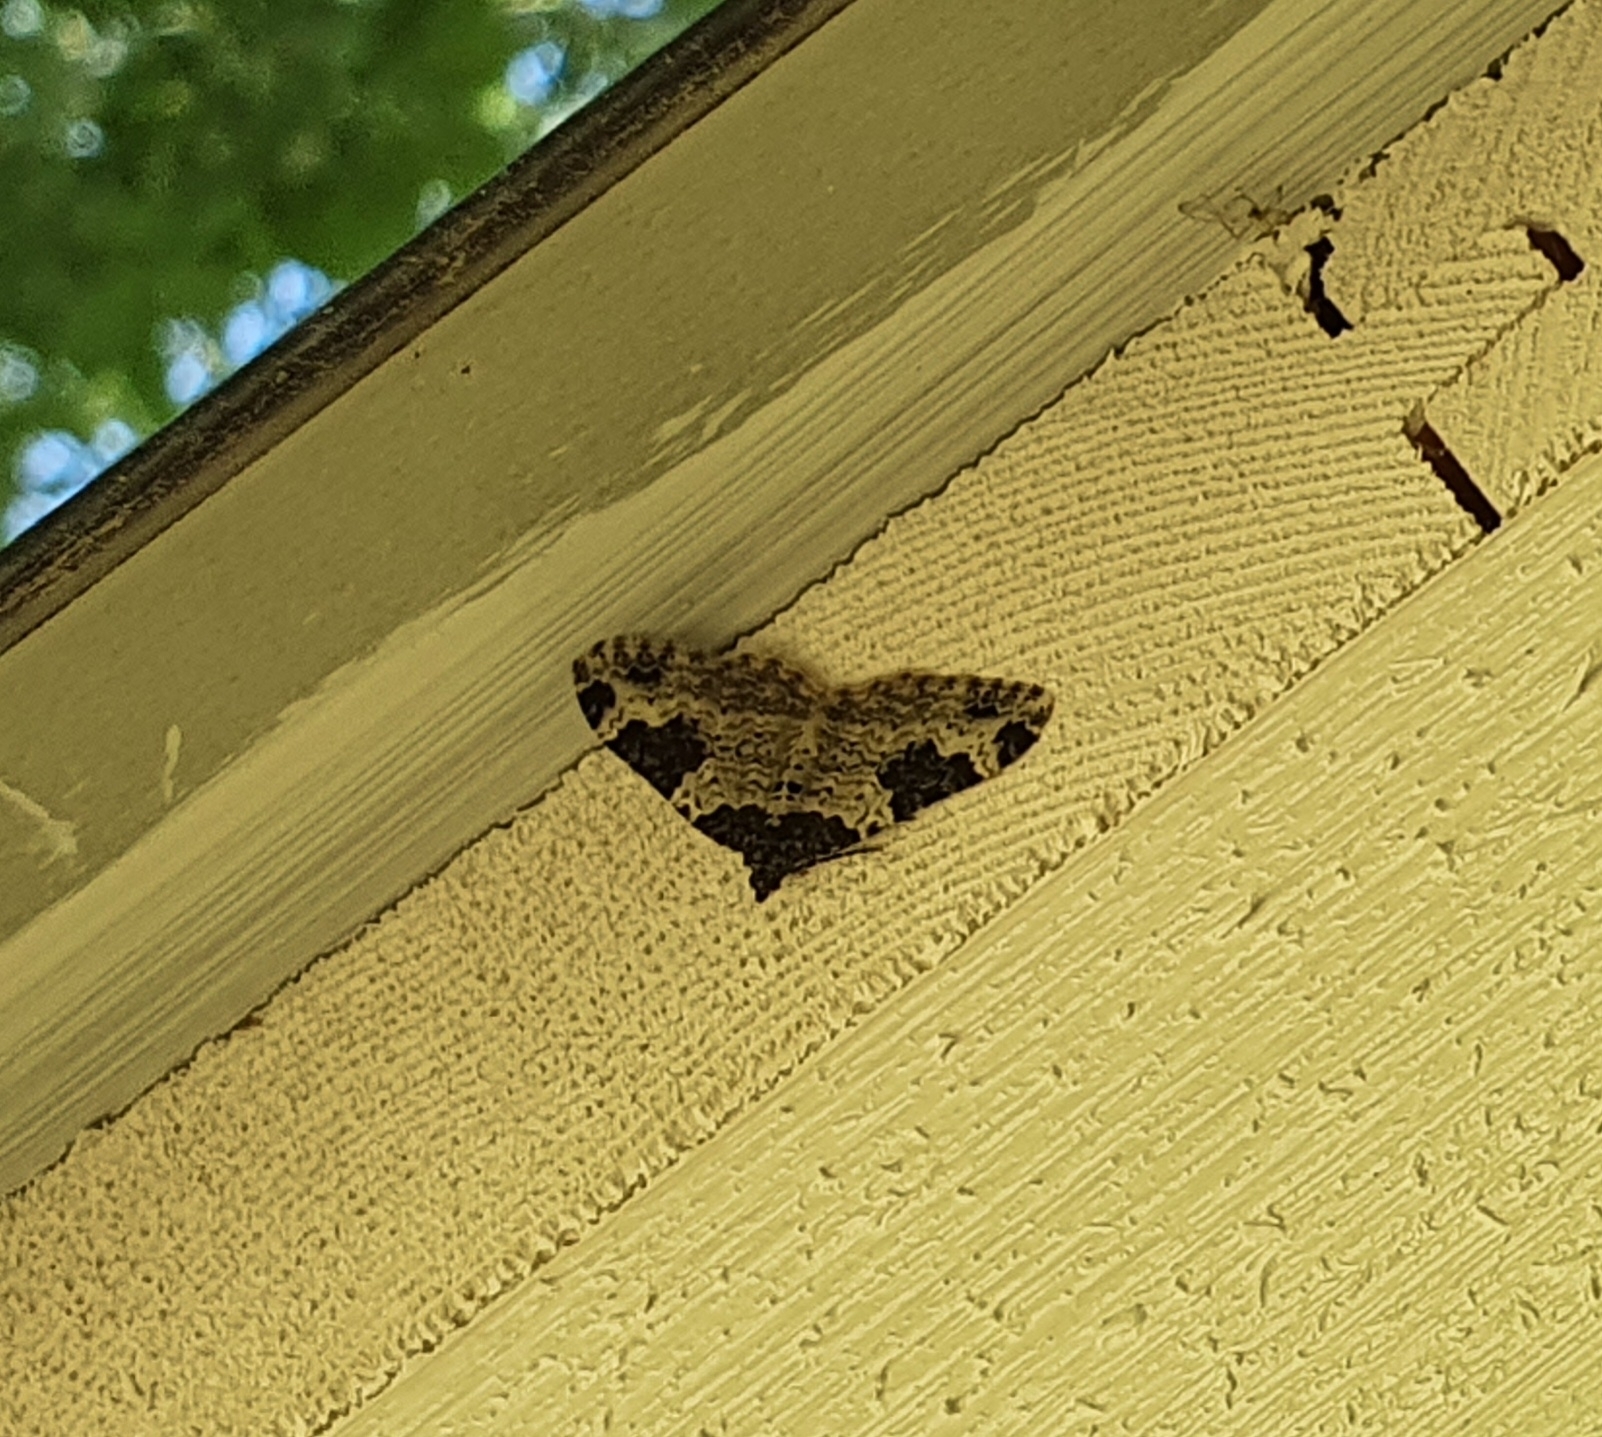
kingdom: Animalia
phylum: Arthropoda
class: Insecta
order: Lepidoptera
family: Geometridae
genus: Xanthorhoe
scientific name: Xanthorhoe fluctuata
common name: Garden carpet
